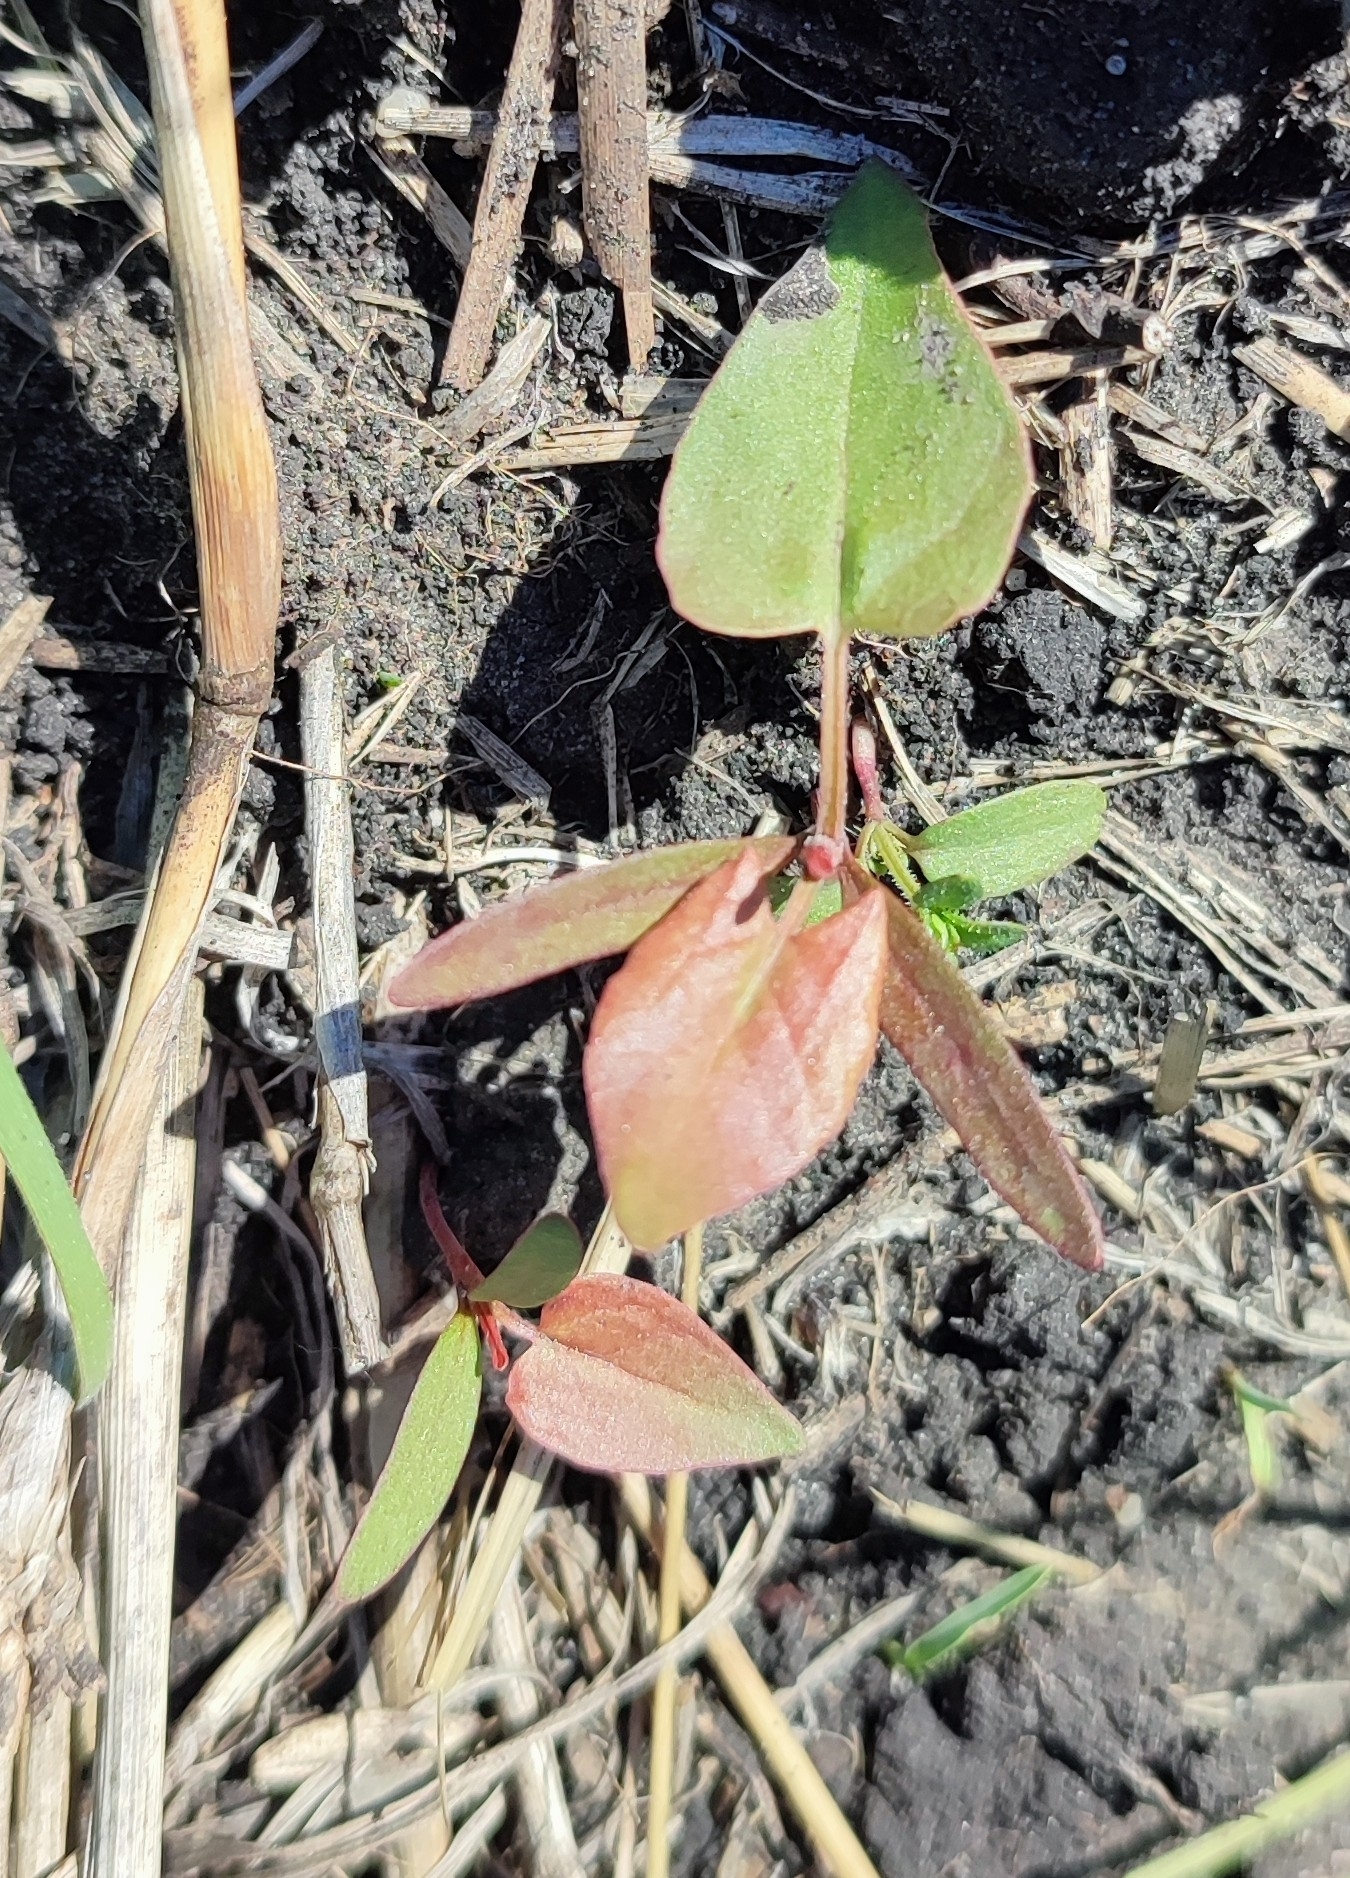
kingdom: Plantae
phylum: Tracheophyta
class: Magnoliopsida
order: Caryophyllales
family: Polygonaceae
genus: Fallopia
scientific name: Fallopia convolvulus
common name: Black bindweed
